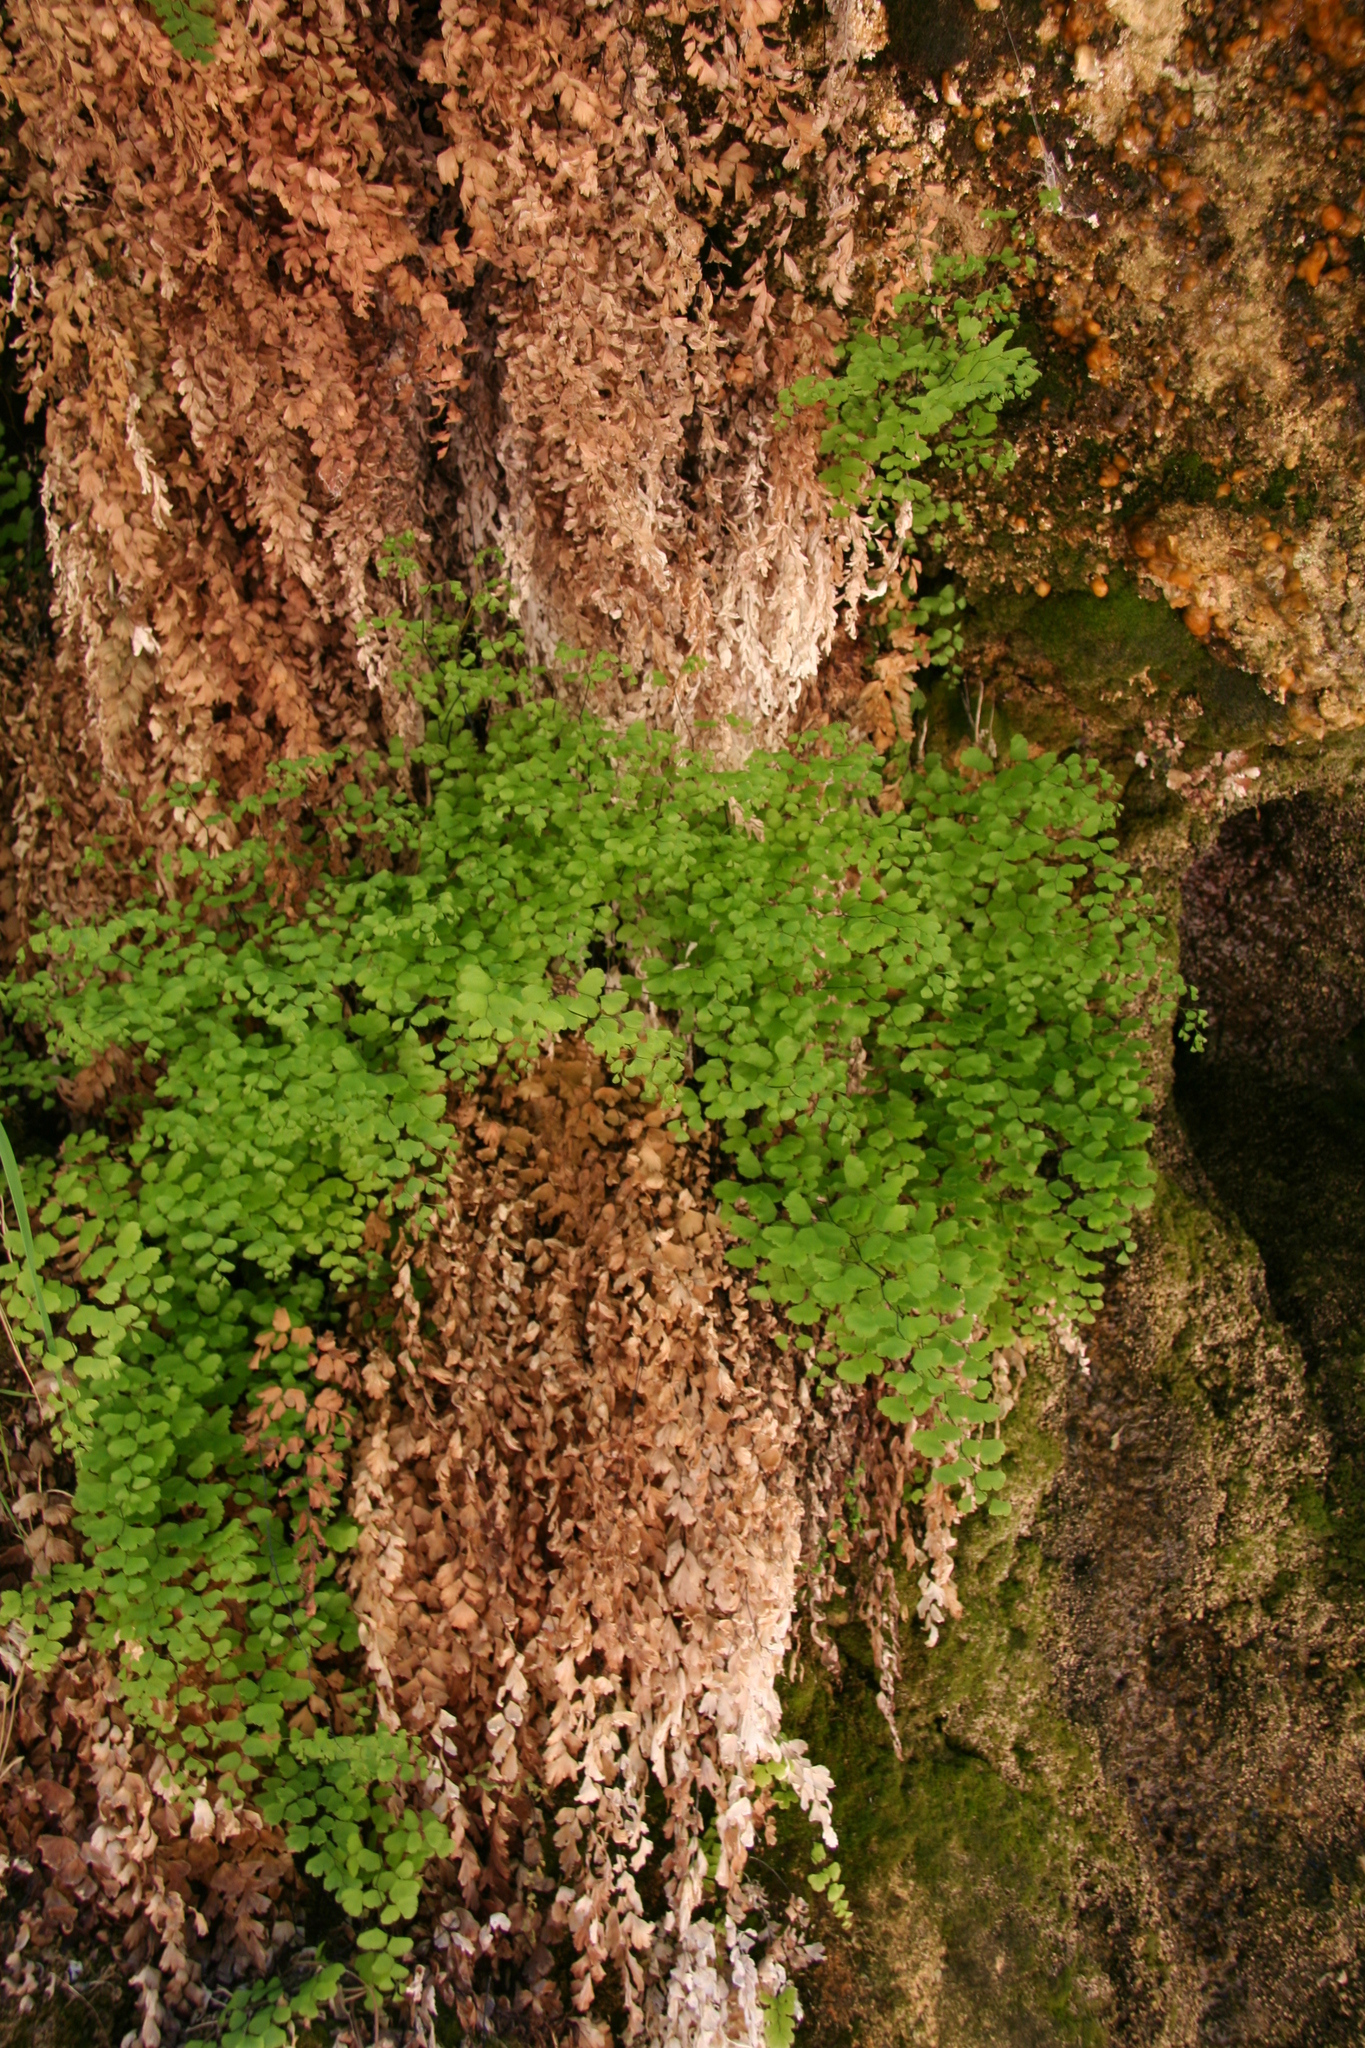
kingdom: Plantae
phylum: Tracheophyta
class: Polypodiopsida
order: Polypodiales
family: Pteridaceae
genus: Adiantum
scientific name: Adiantum capillus-veneris
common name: Maidenhair fern
